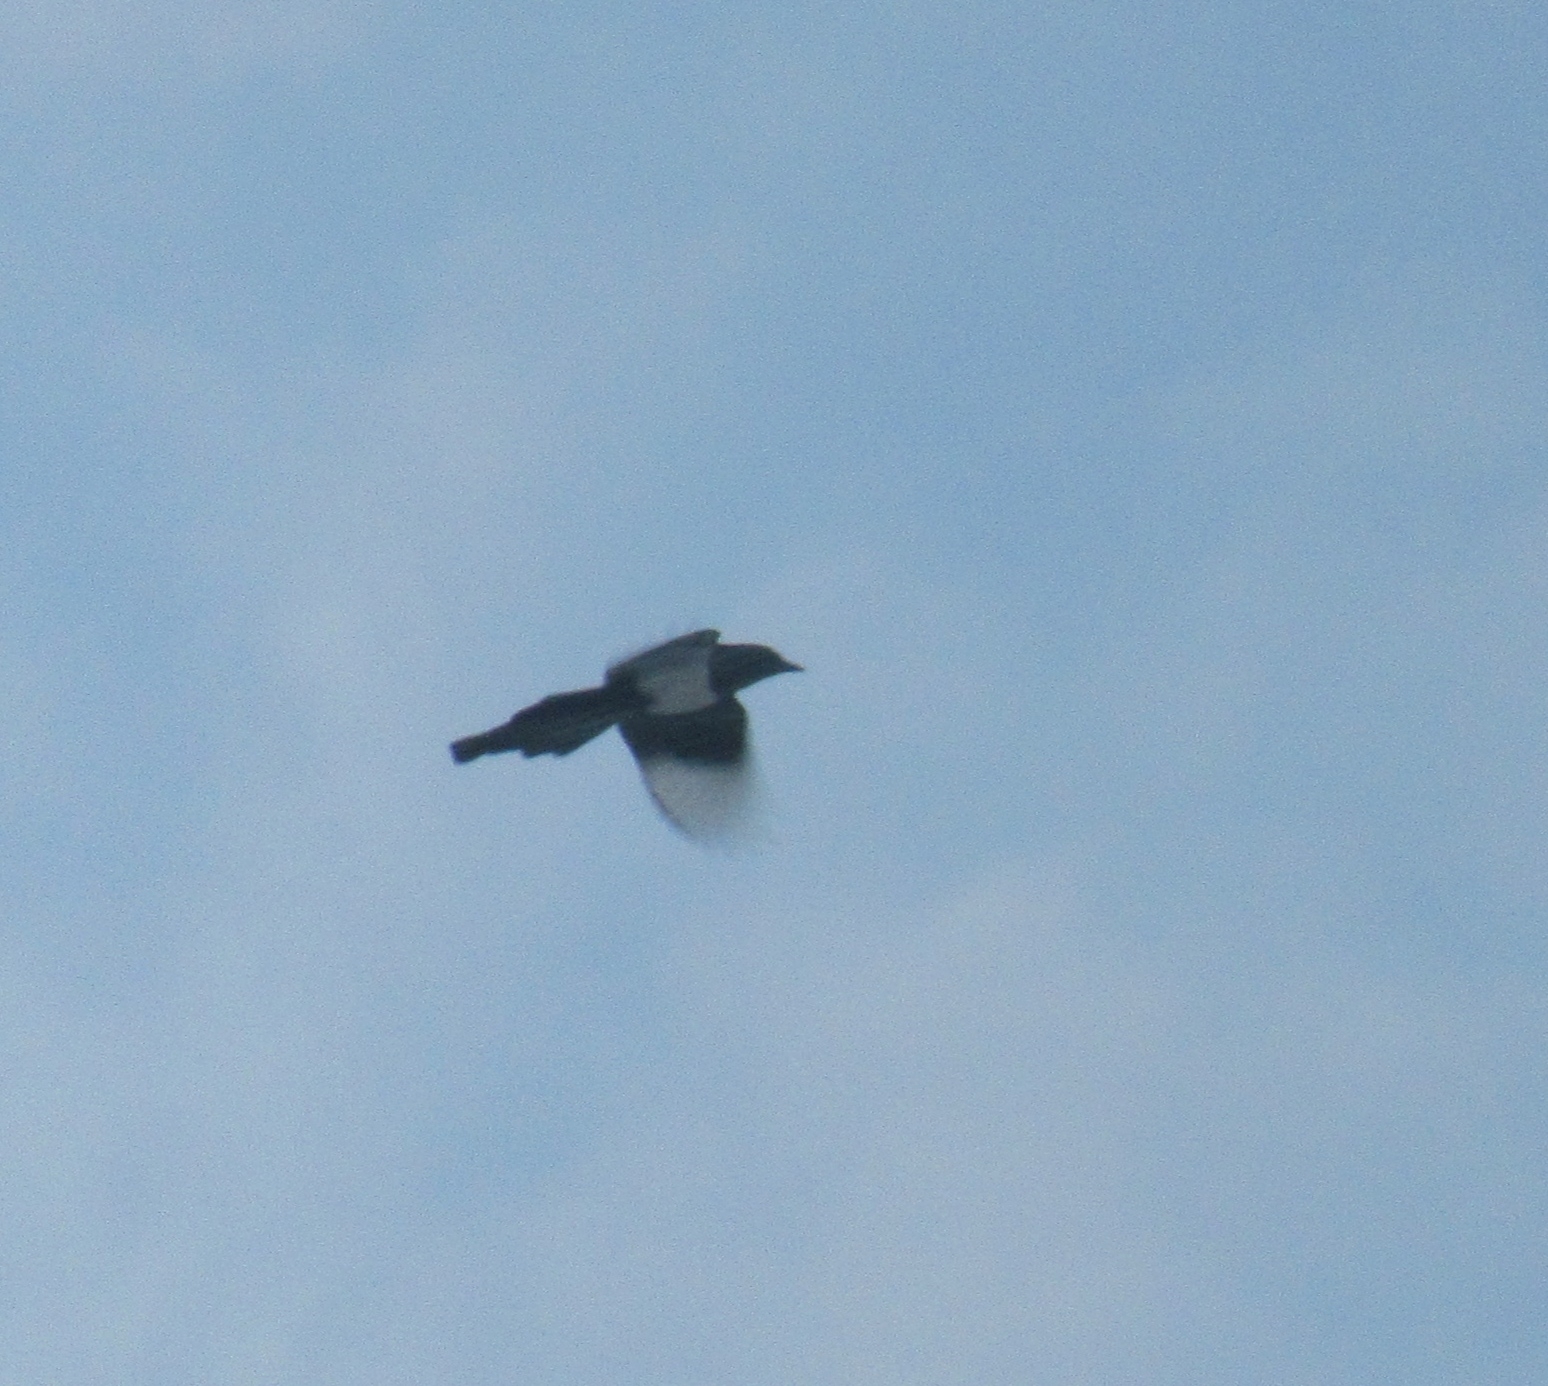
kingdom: Animalia
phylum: Chordata
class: Aves
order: Passeriformes
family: Corvidae
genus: Pica
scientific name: Pica pica
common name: Eurasian magpie
